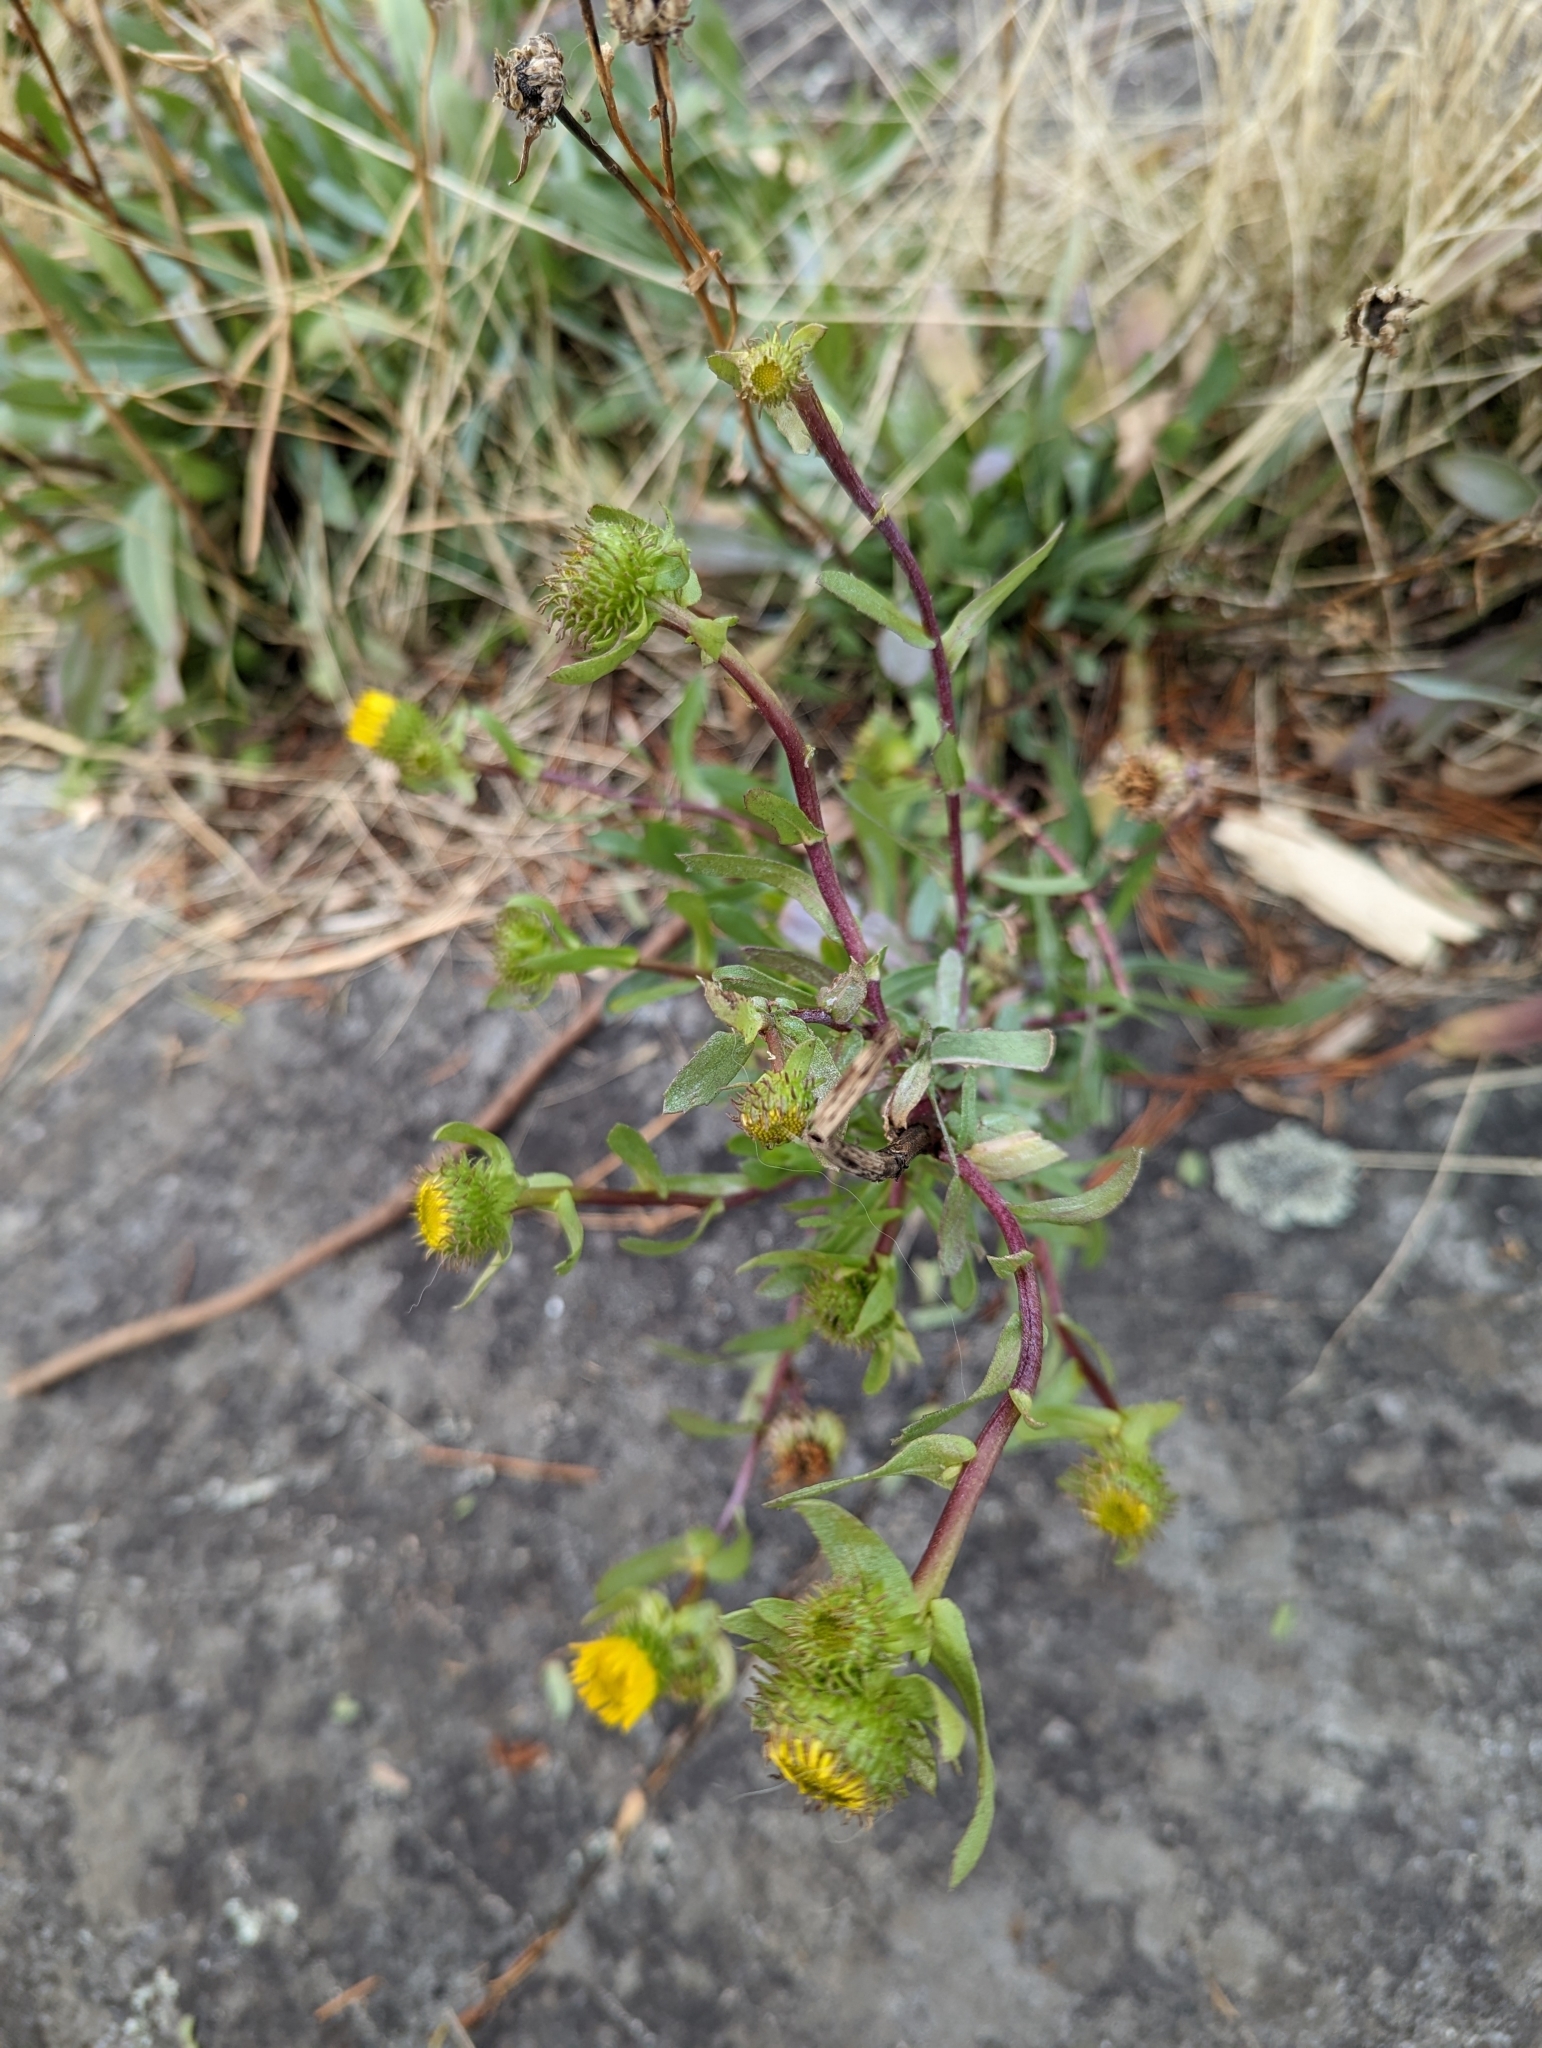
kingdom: Plantae
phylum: Tracheophyta
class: Magnoliopsida
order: Asterales
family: Asteraceae
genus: Grindelia
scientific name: Grindelia hirsutula
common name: Hairy gumweed
